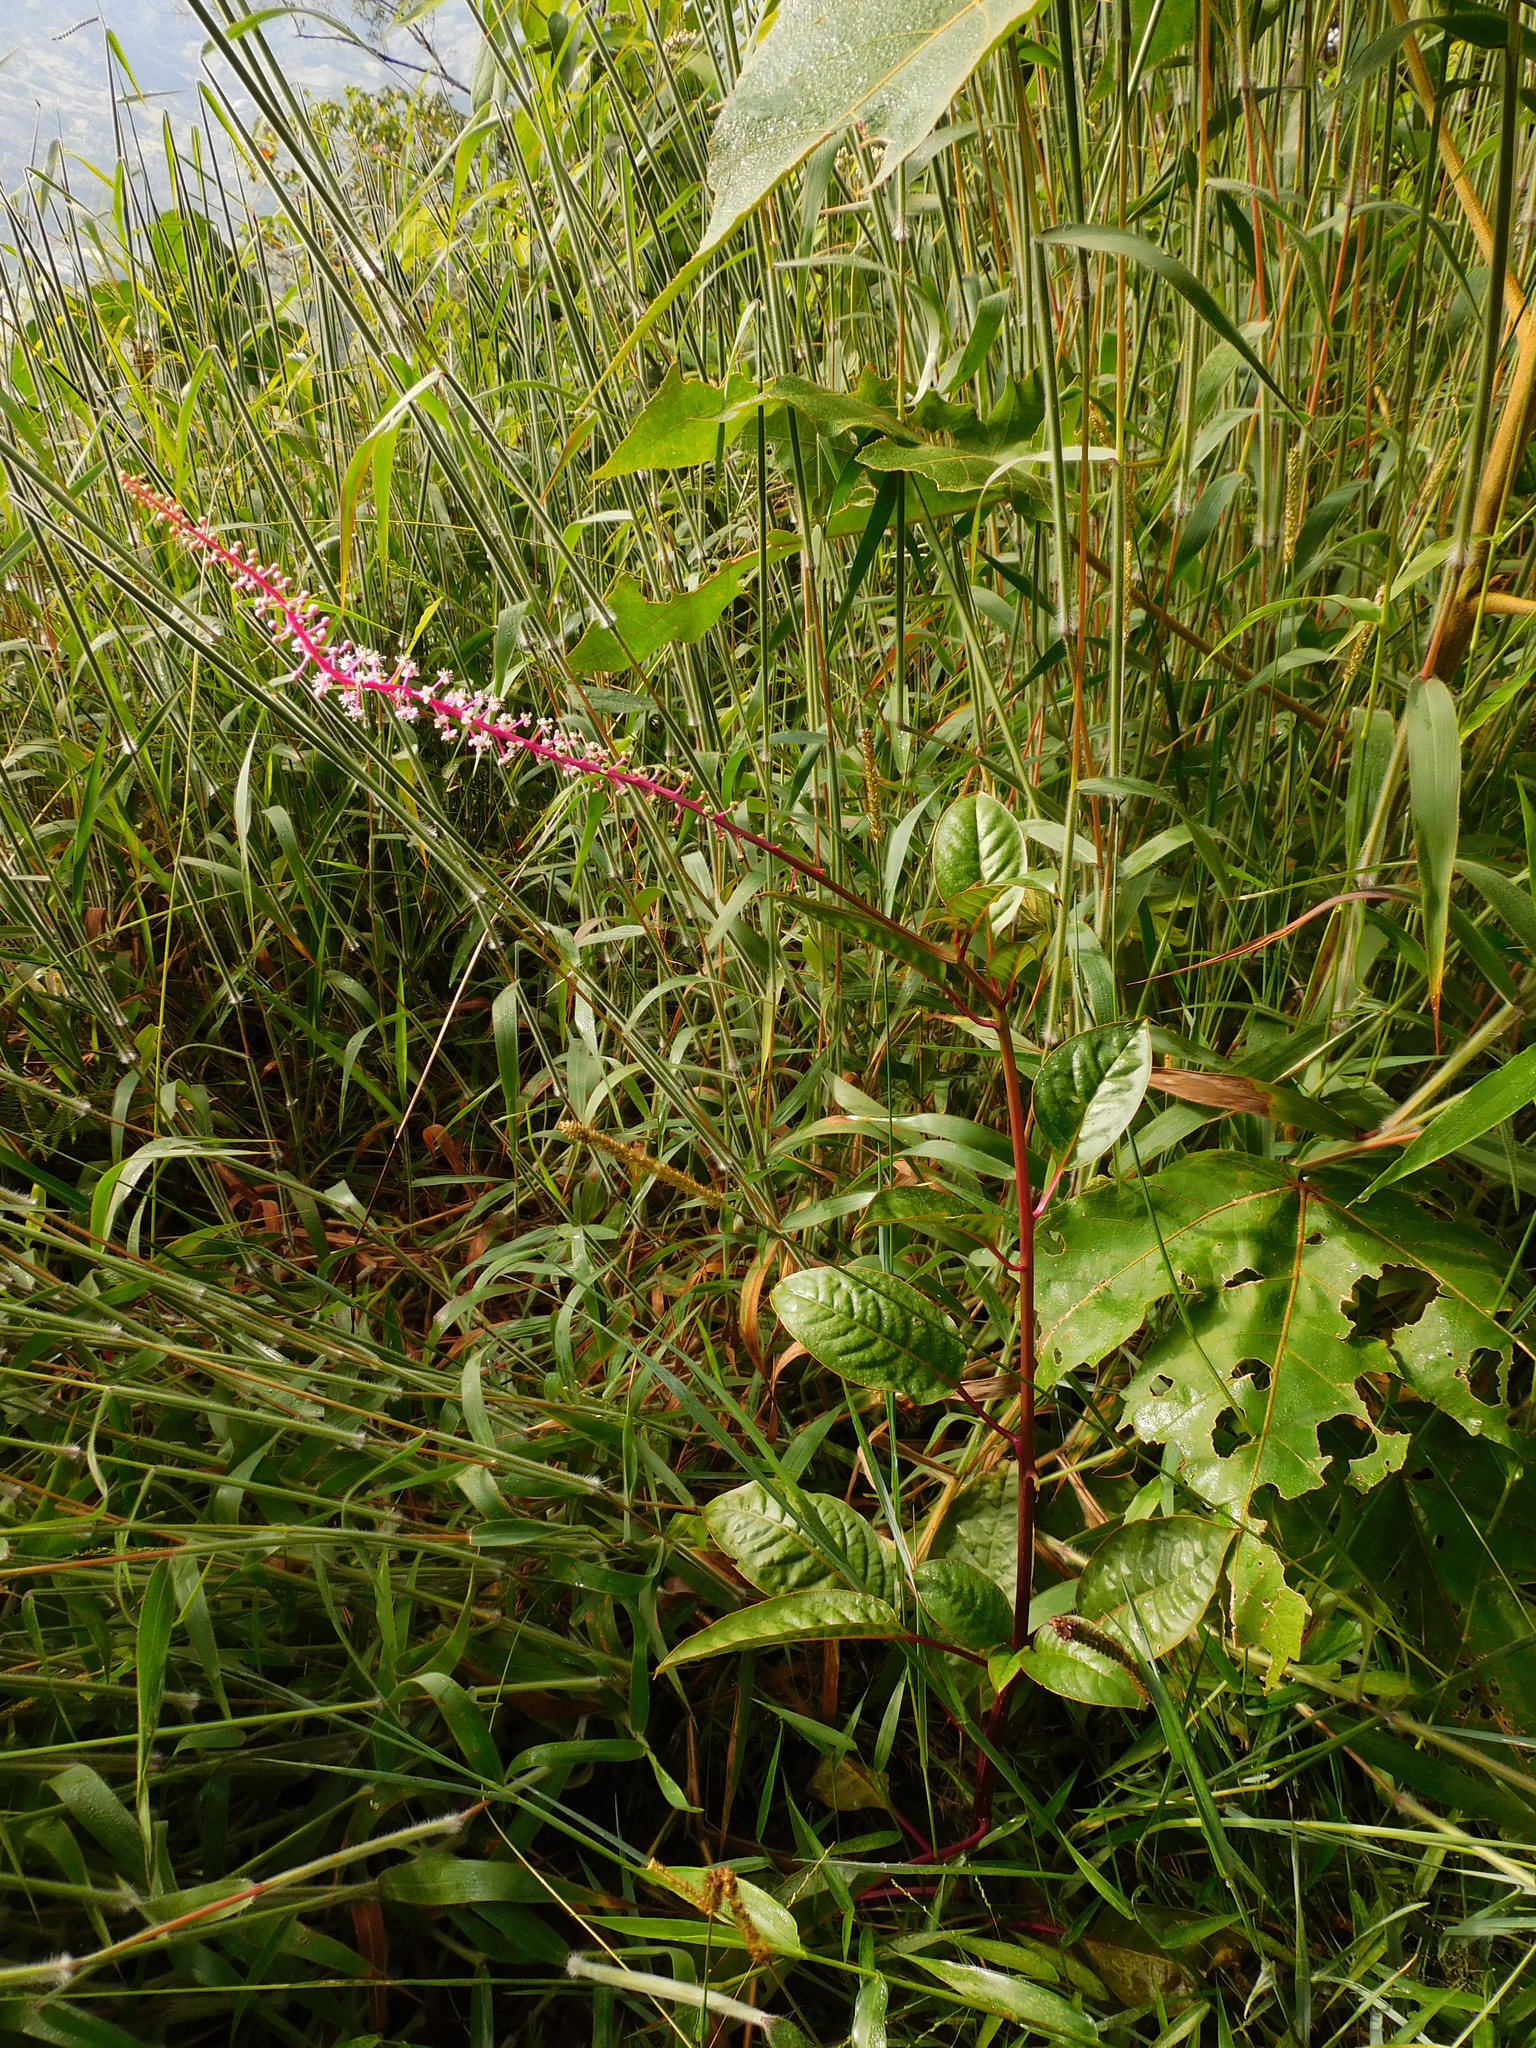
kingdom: Plantae
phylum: Tracheophyta
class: Magnoliopsida
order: Caryophyllales
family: Phytolaccaceae
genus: Phytolacca
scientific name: Phytolacca rivinoides
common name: Venezuelan pokeweed
